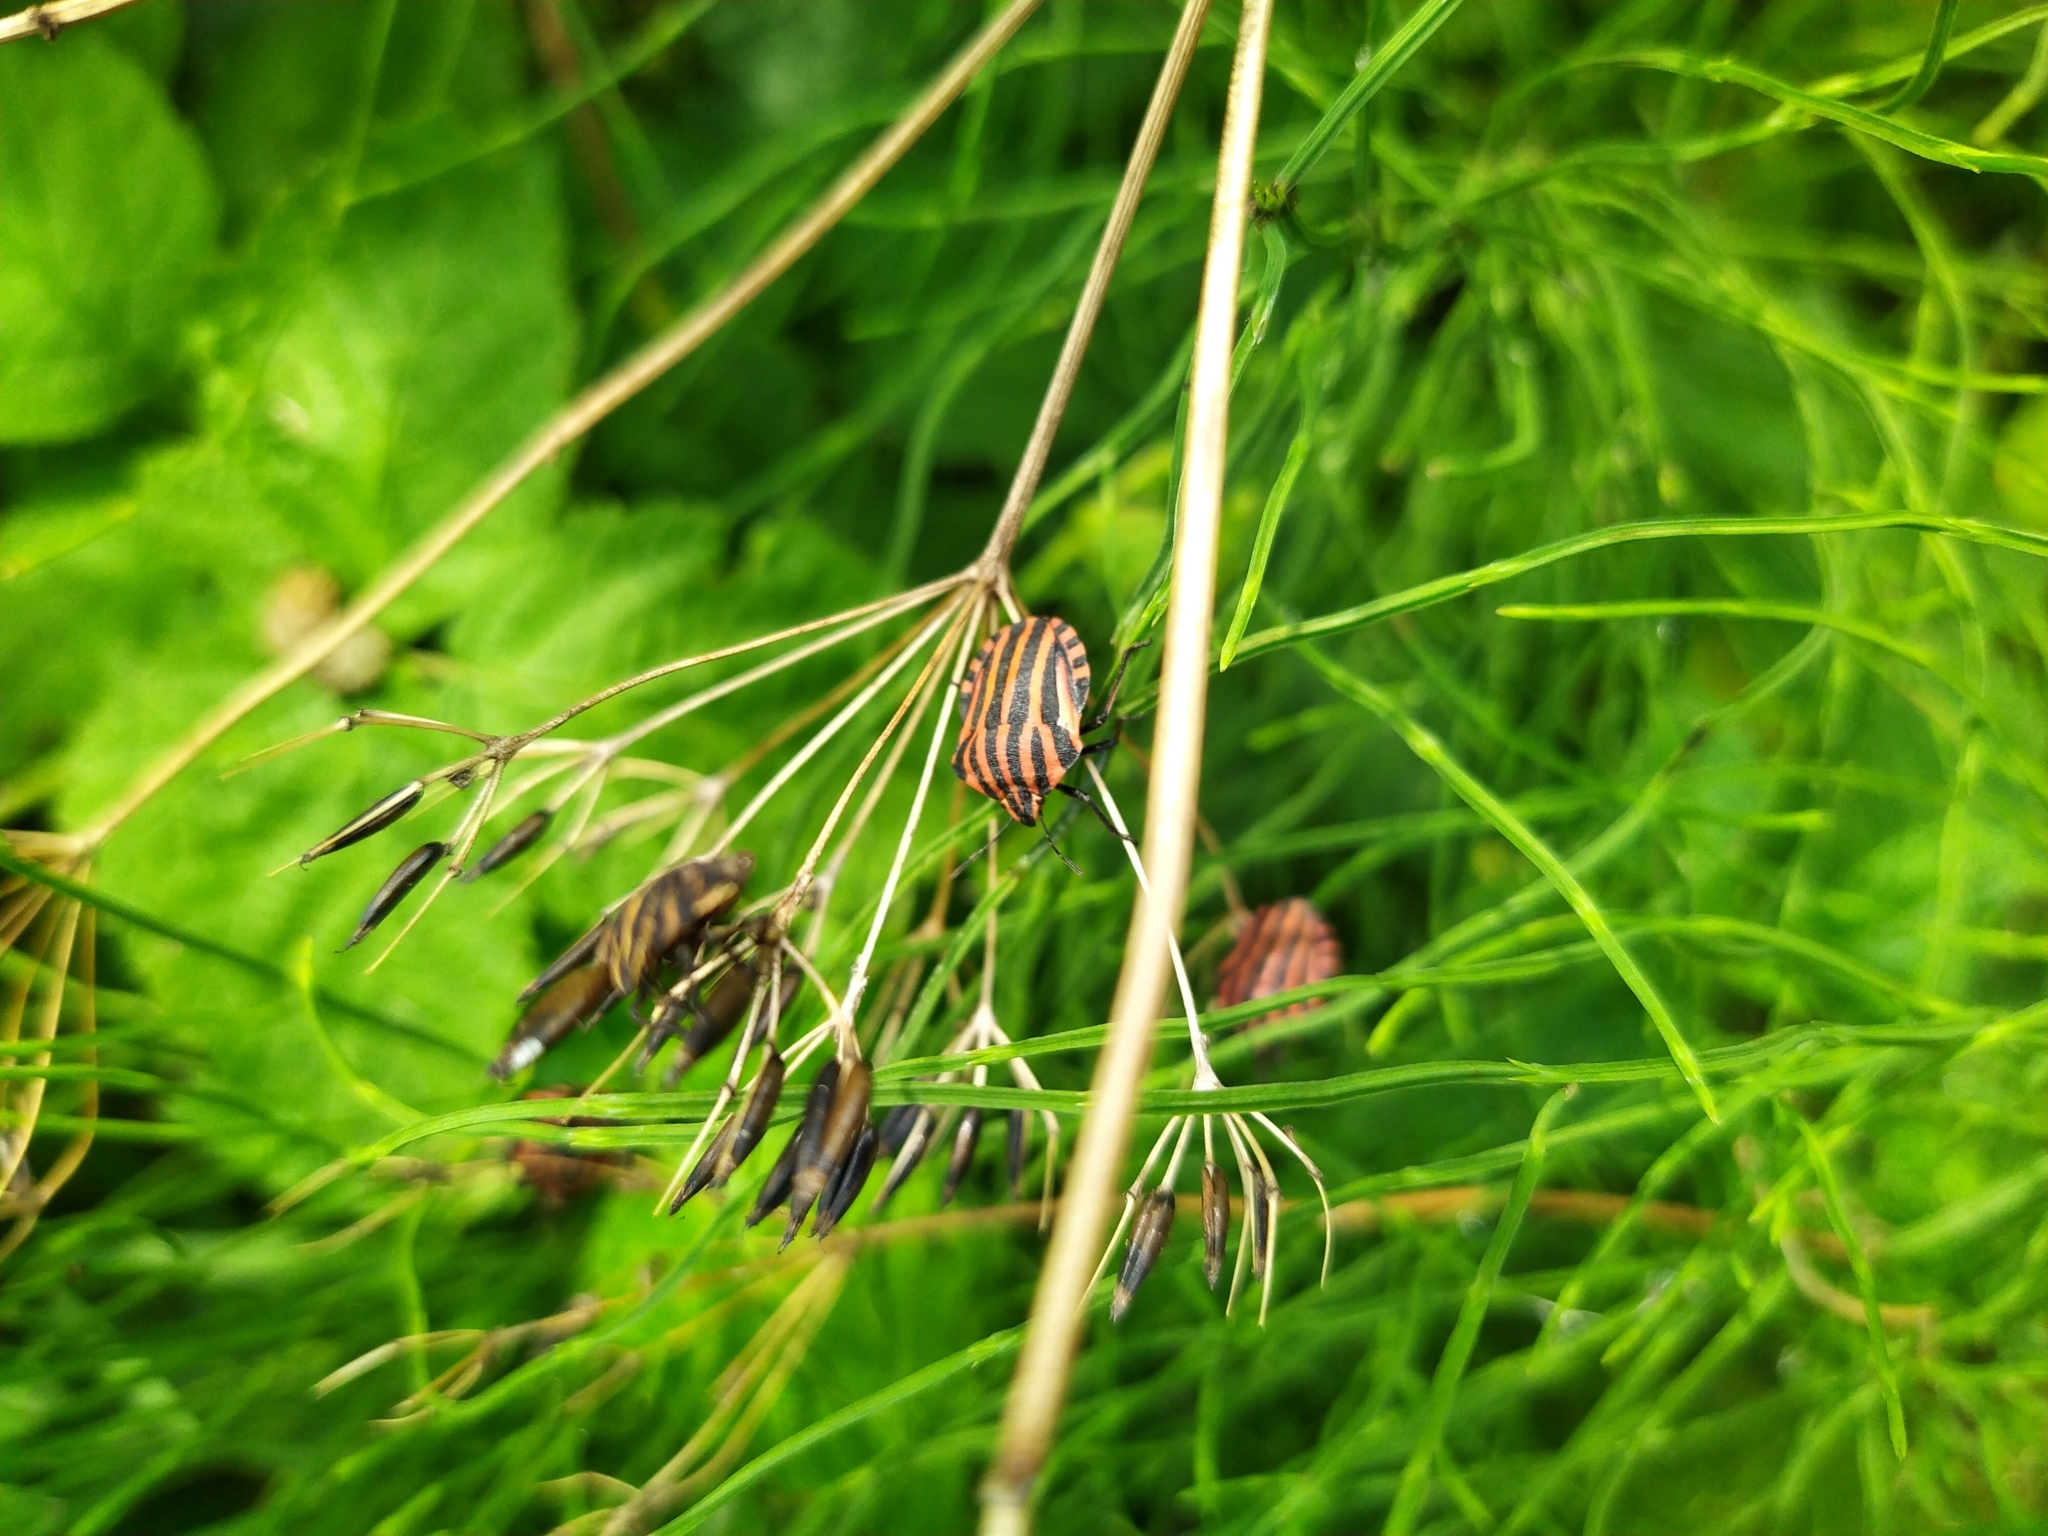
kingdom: Animalia
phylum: Arthropoda
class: Insecta
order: Hemiptera
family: Pentatomidae
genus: Graphosoma
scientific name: Graphosoma italicum
